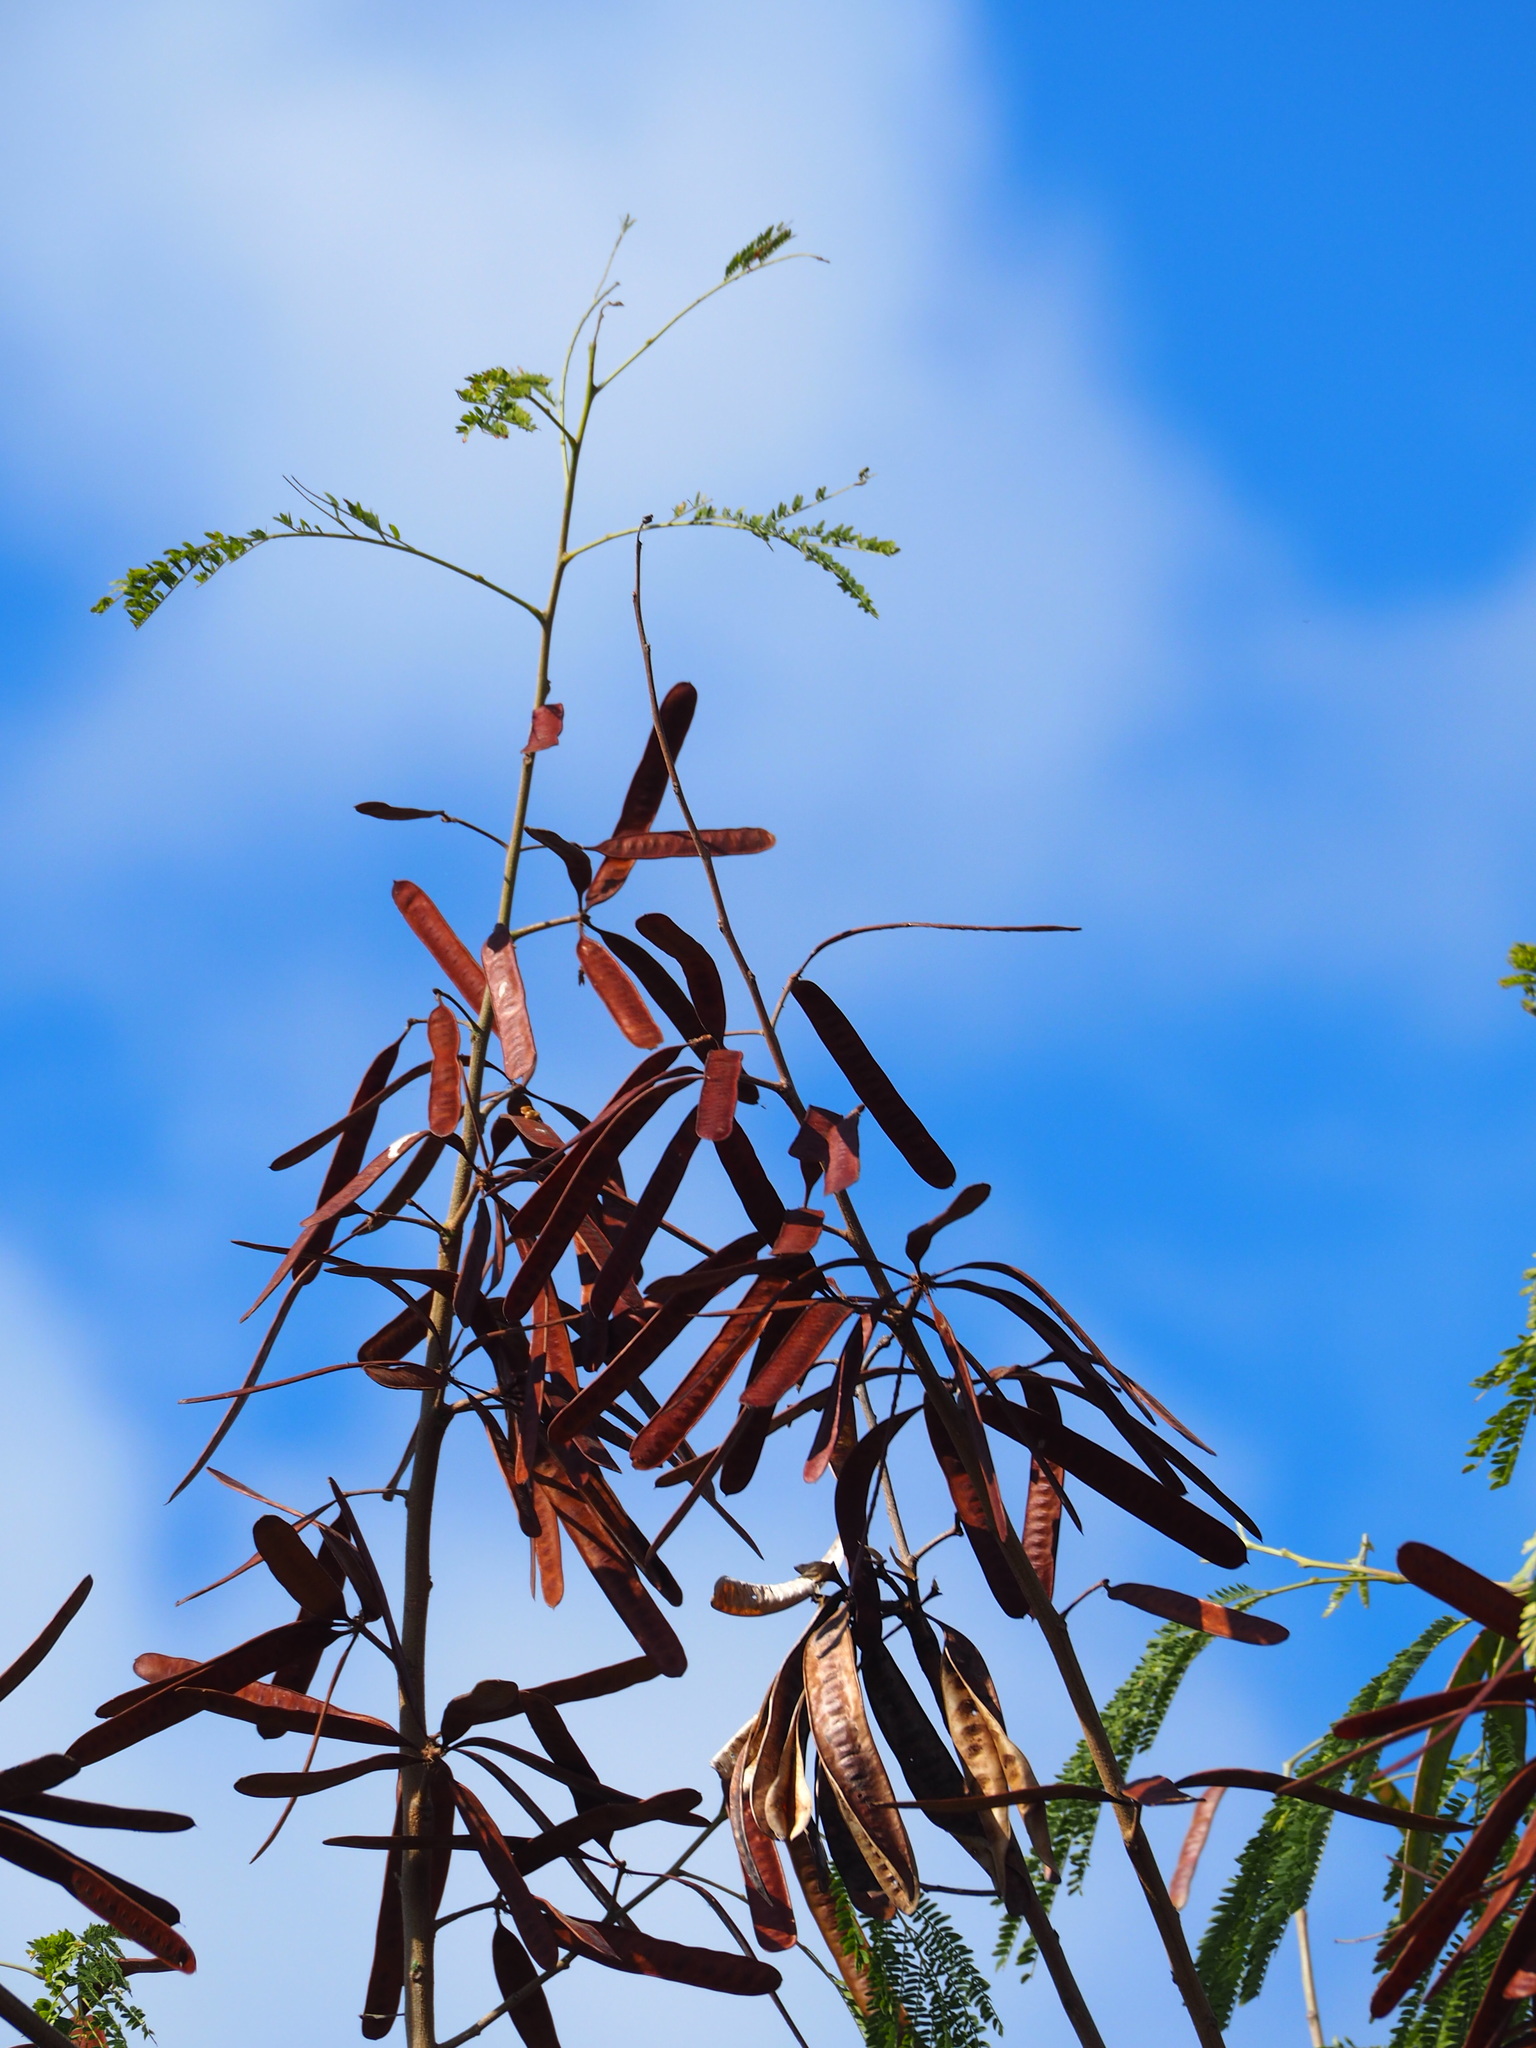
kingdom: Plantae
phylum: Tracheophyta
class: Magnoliopsida
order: Fabales
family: Fabaceae
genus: Leucaena
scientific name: Leucaena leucocephala
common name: White leadtree
